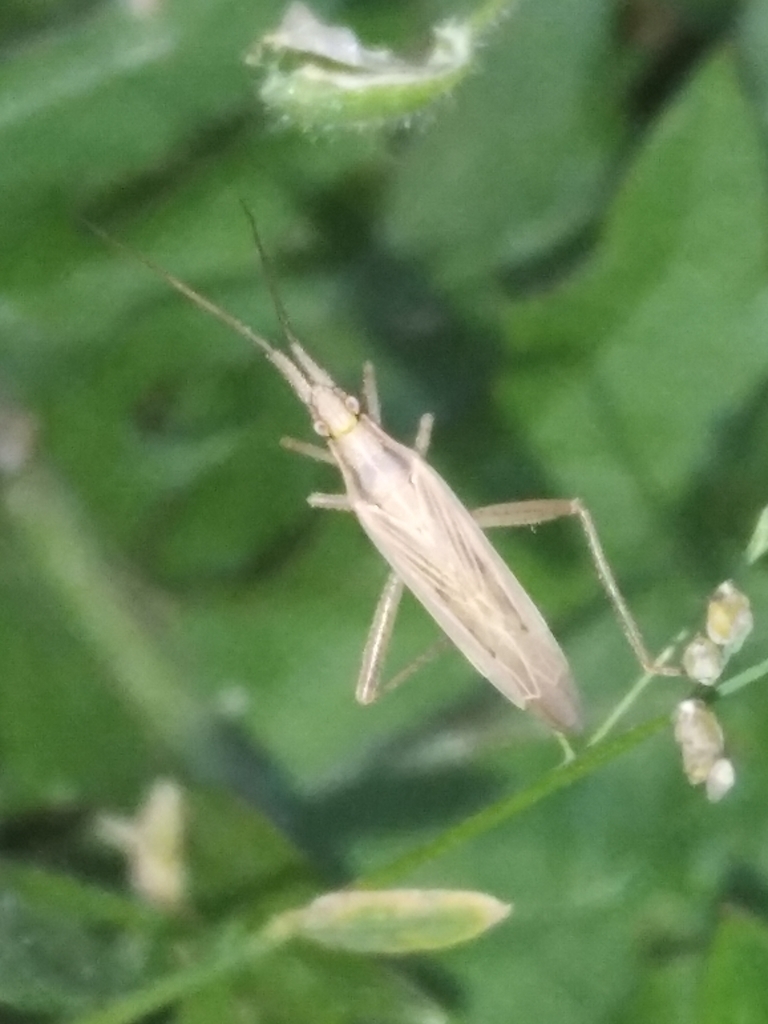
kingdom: Animalia
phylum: Arthropoda
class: Insecta
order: Hemiptera
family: Miridae
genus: Stenodema
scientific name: Stenodema laevigata
